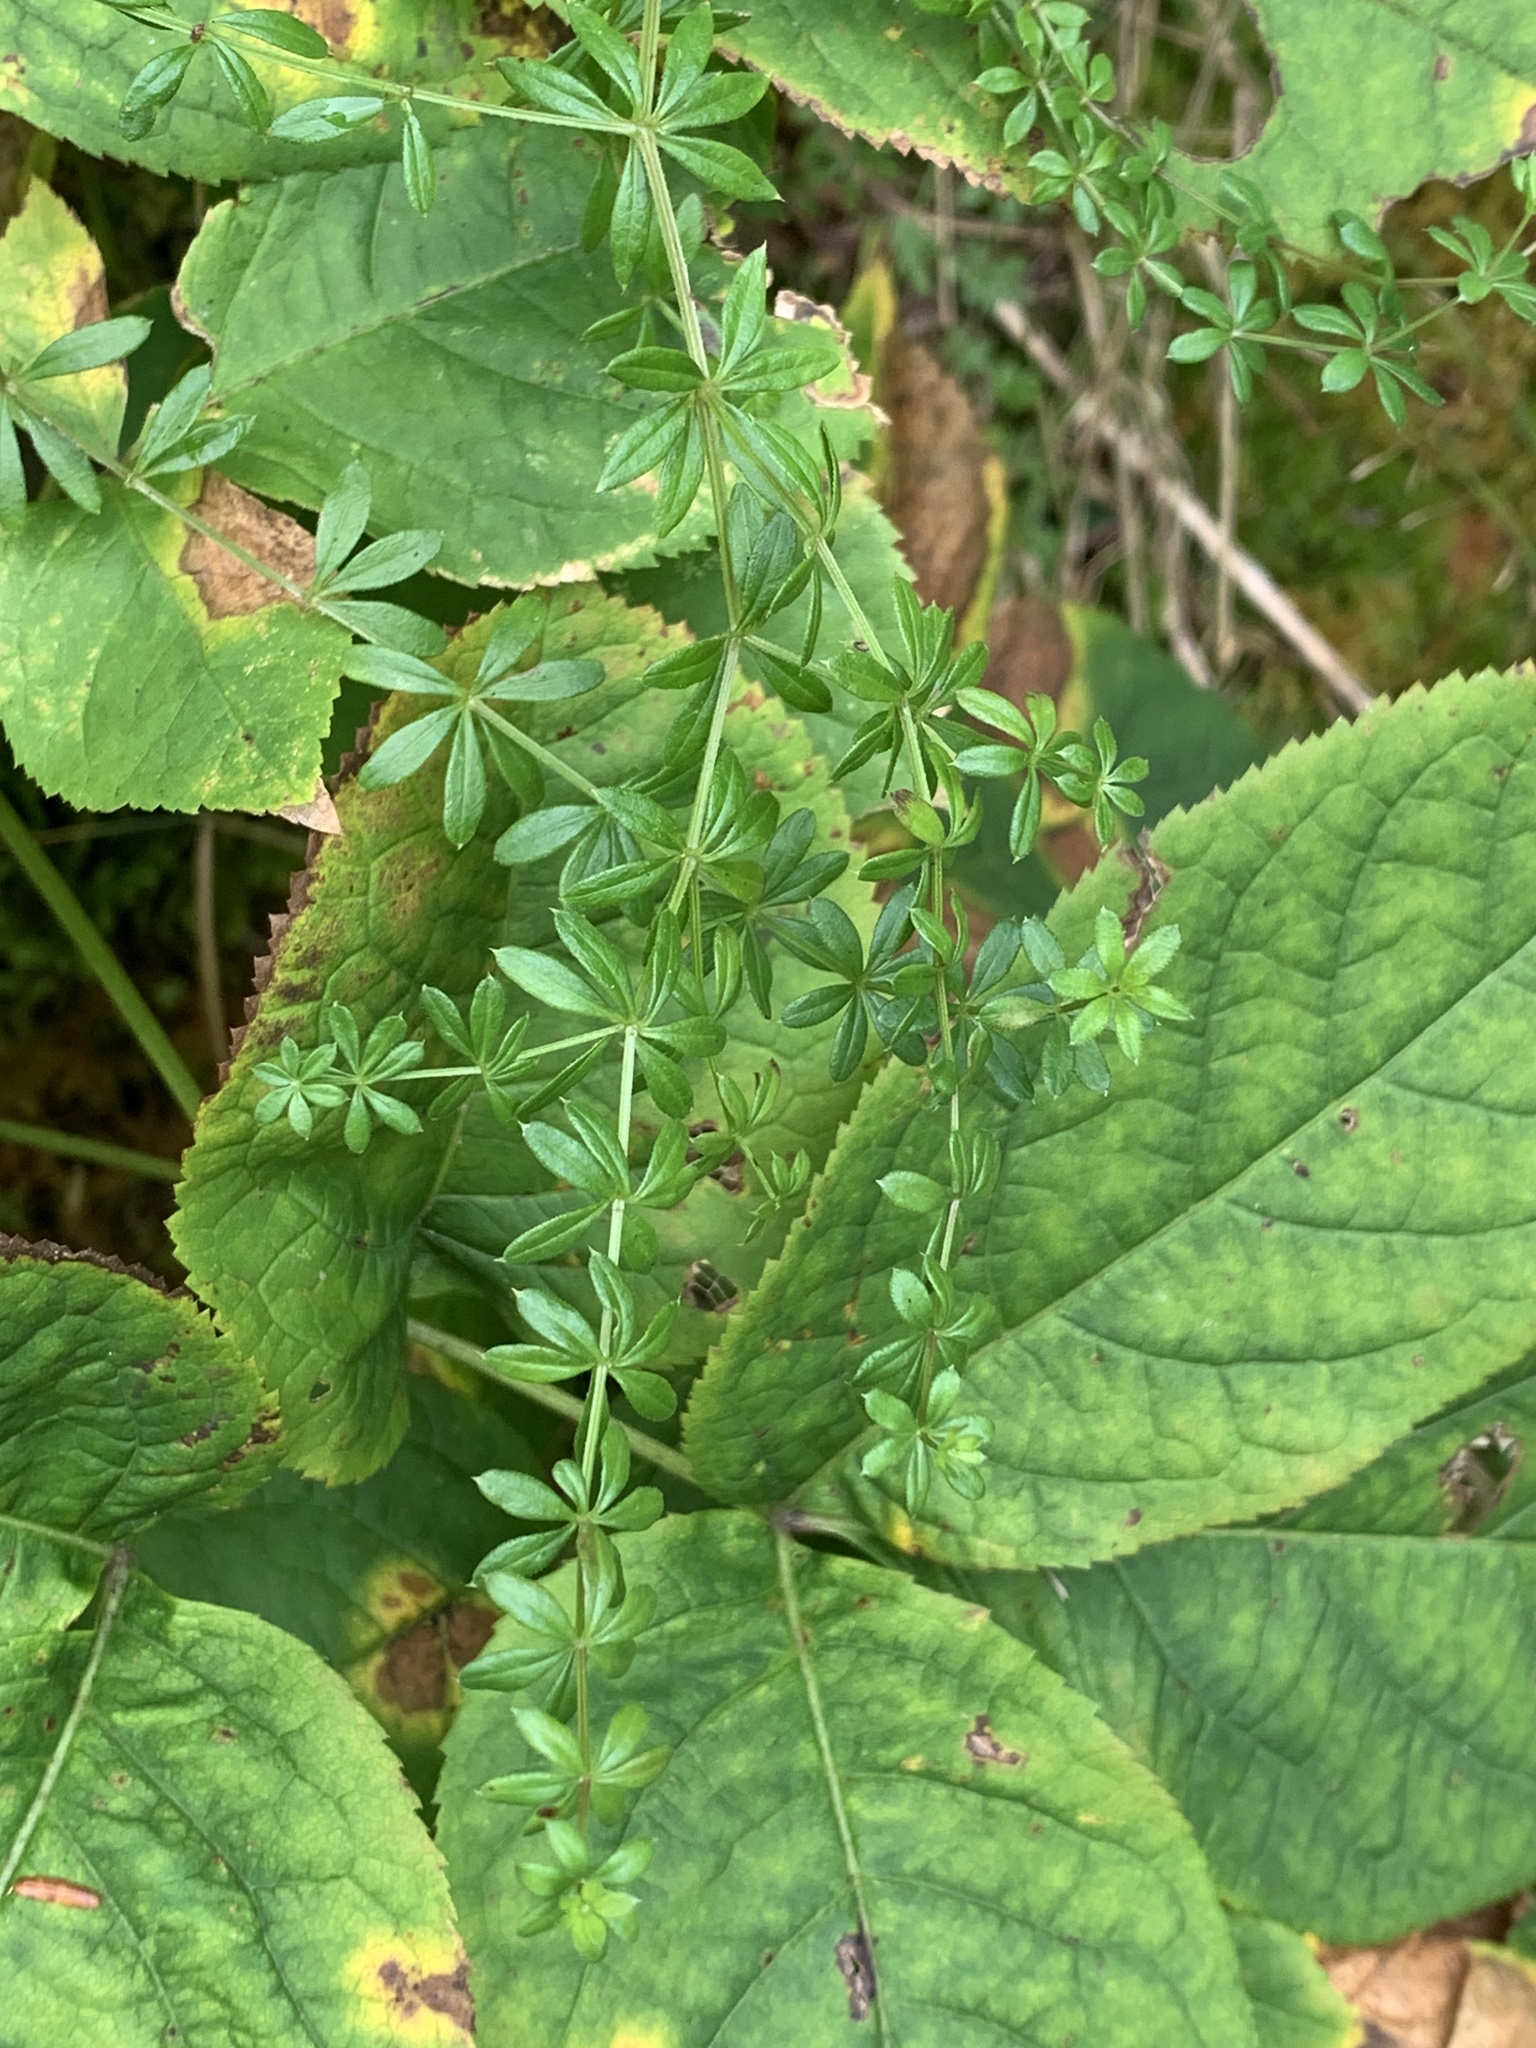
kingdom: Plantae
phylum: Tracheophyta
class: Magnoliopsida
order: Gentianales
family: Rubiaceae
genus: Galium
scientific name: Galium asprellum
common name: Rough bedstraw
